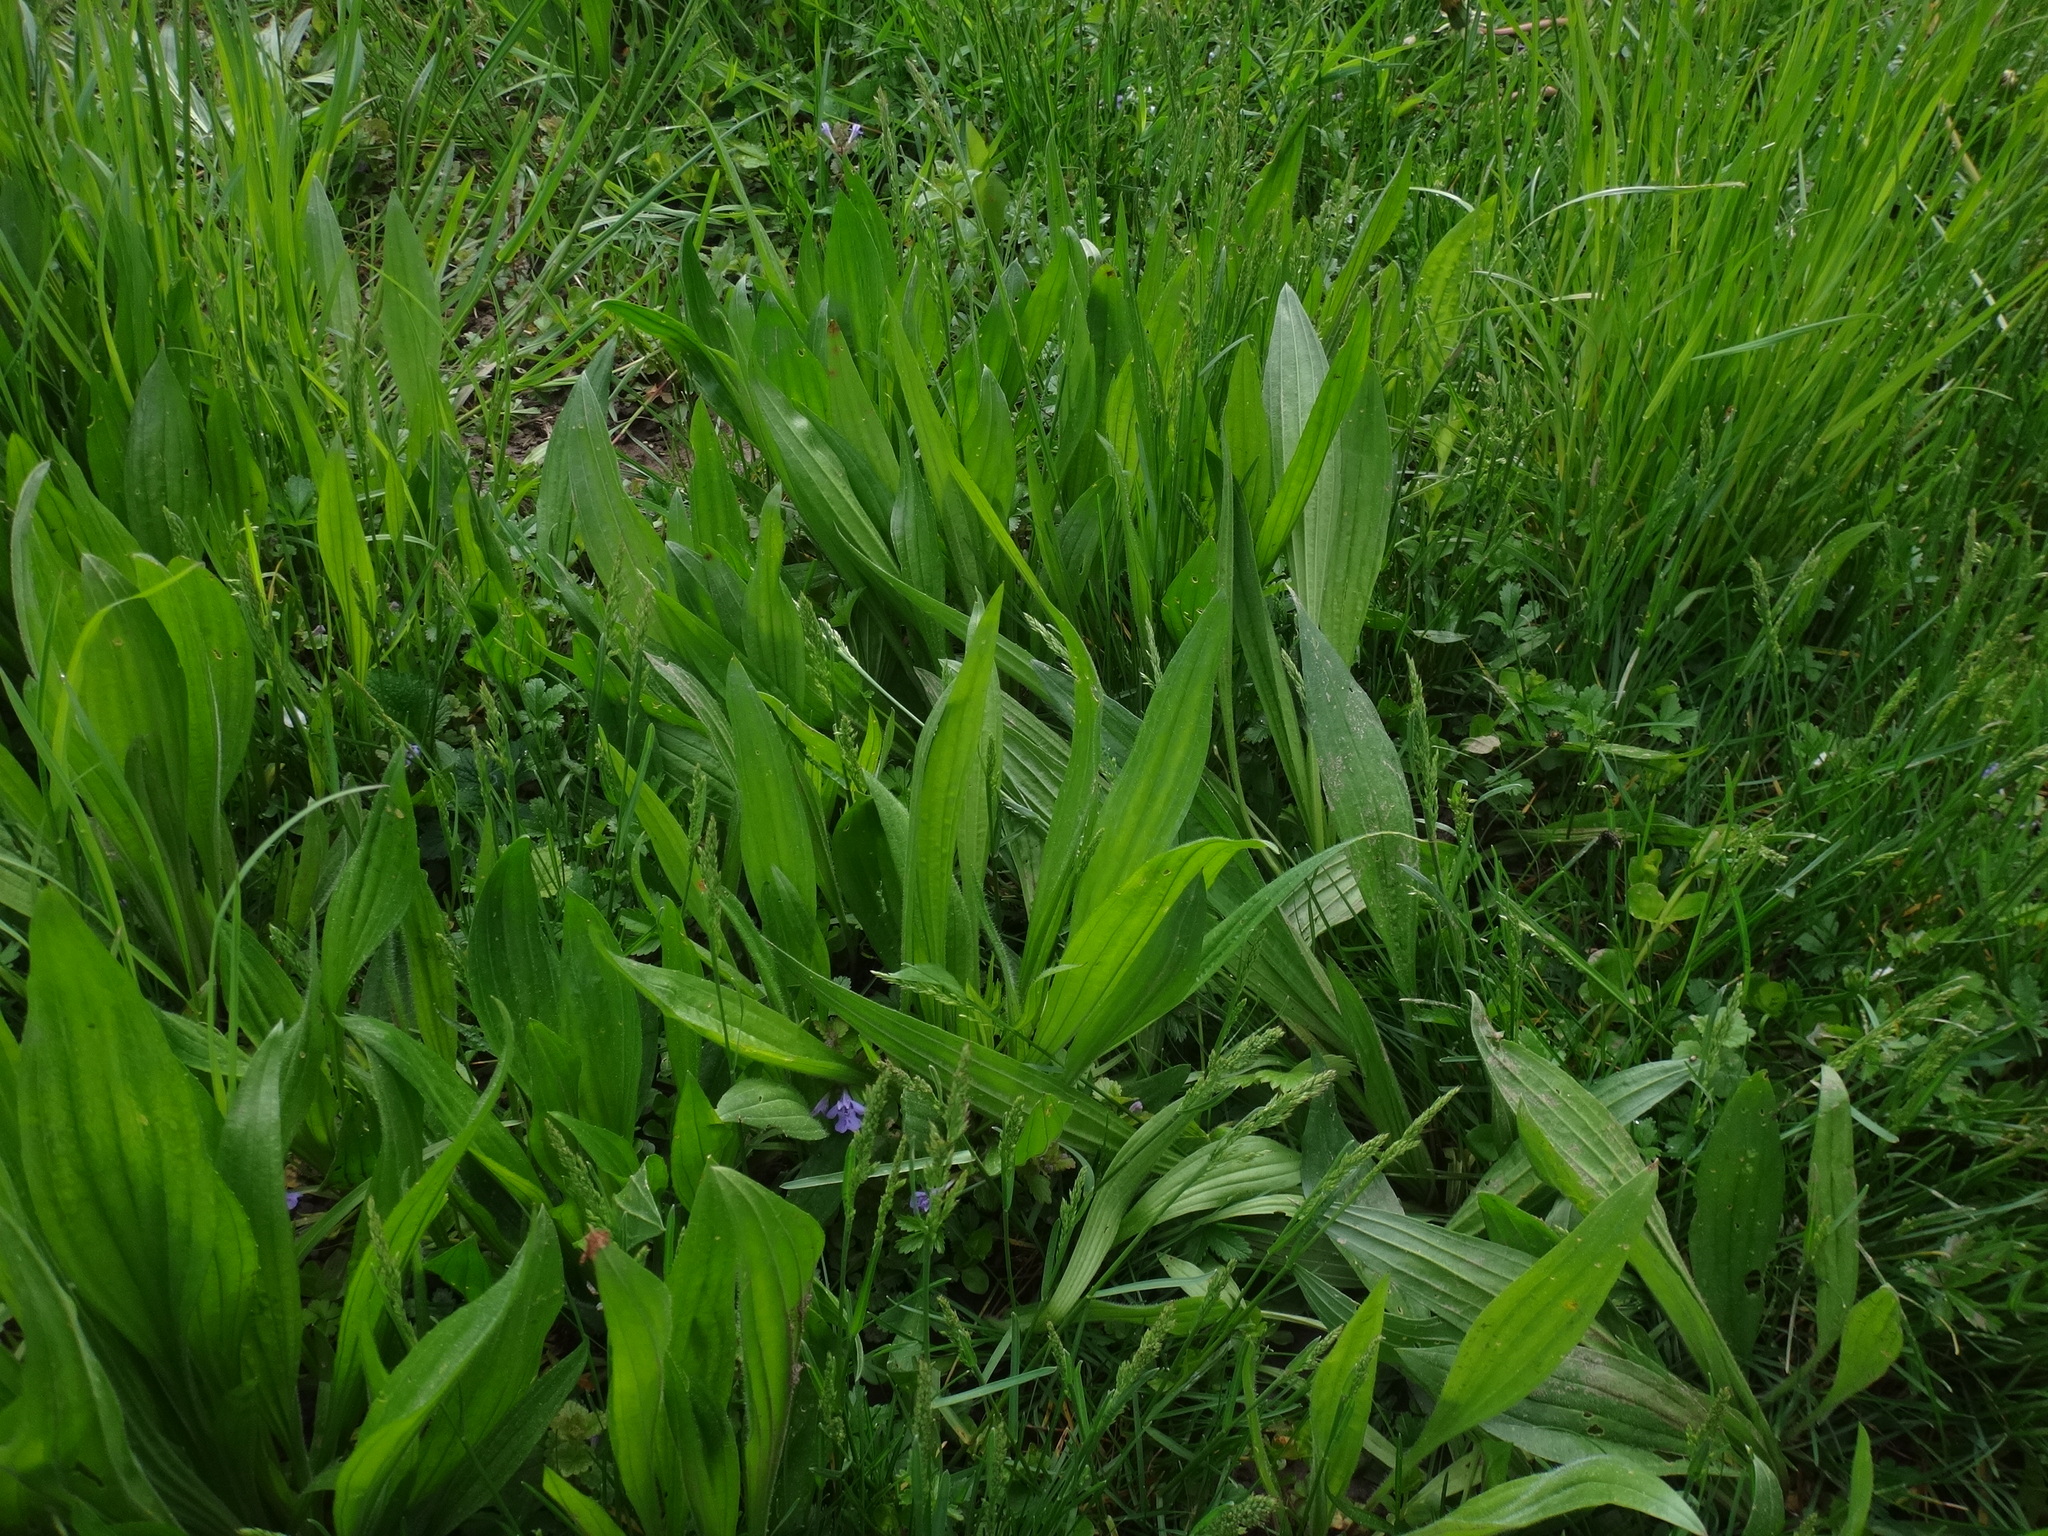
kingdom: Plantae
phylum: Tracheophyta
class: Magnoliopsida
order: Lamiales
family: Plantaginaceae
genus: Plantago
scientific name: Plantago lanceolata
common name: Ribwort plantain
